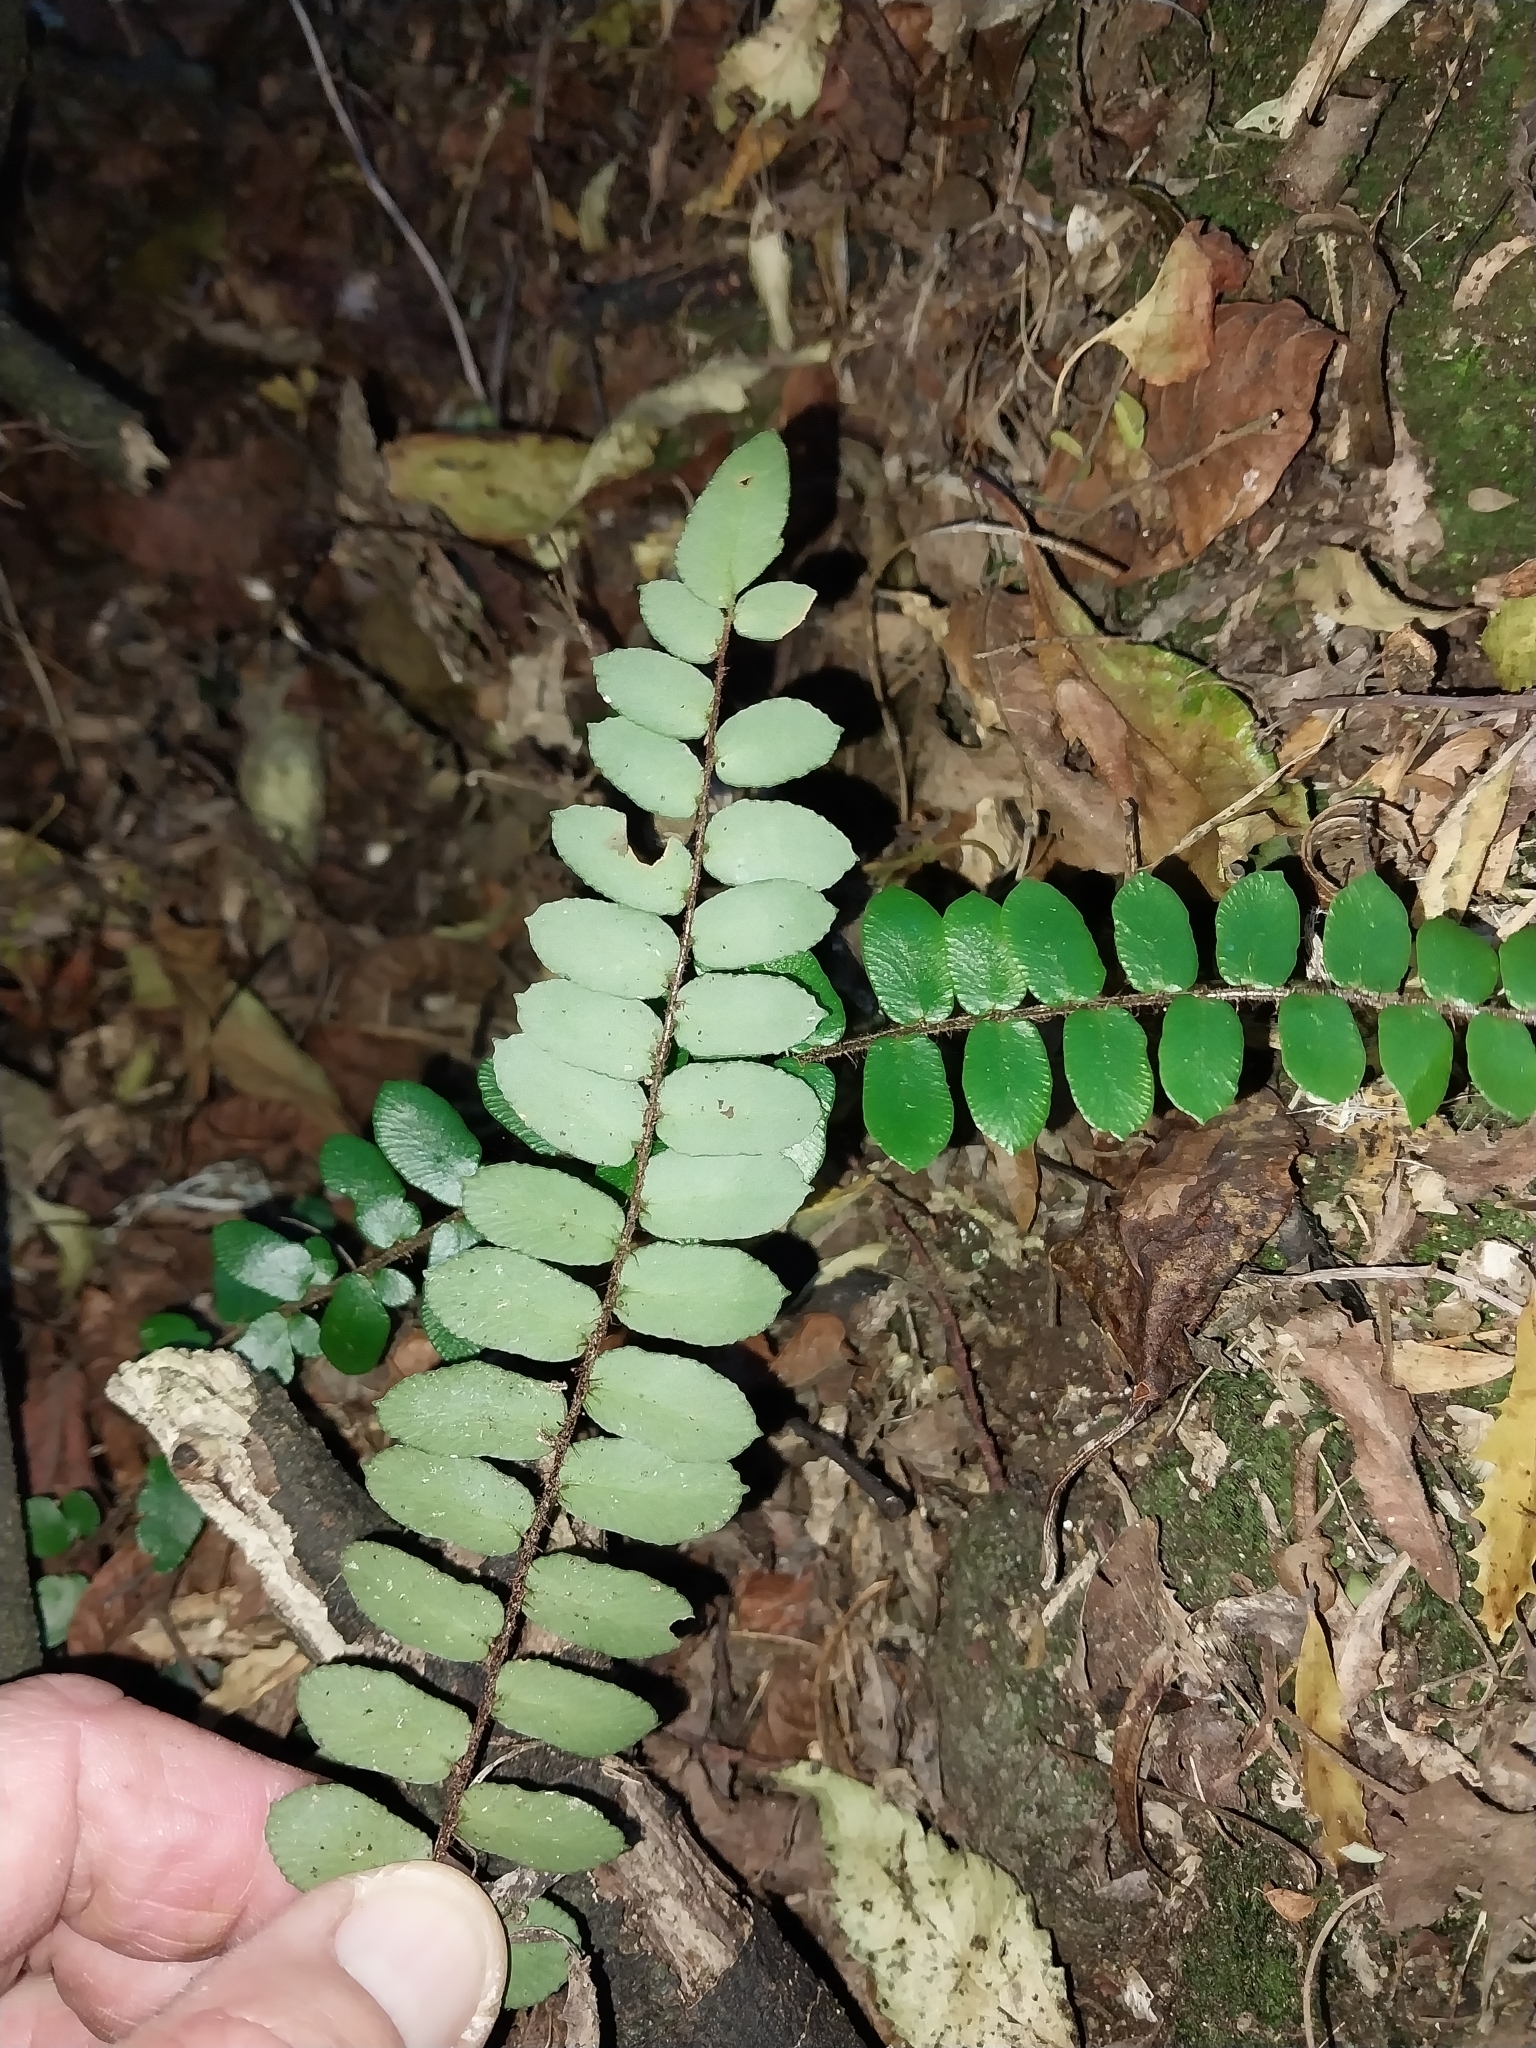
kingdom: Plantae
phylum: Tracheophyta
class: Polypodiopsida
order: Polypodiales
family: Pteridaceae
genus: Pellaea
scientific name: Pellaea rotundifolia
